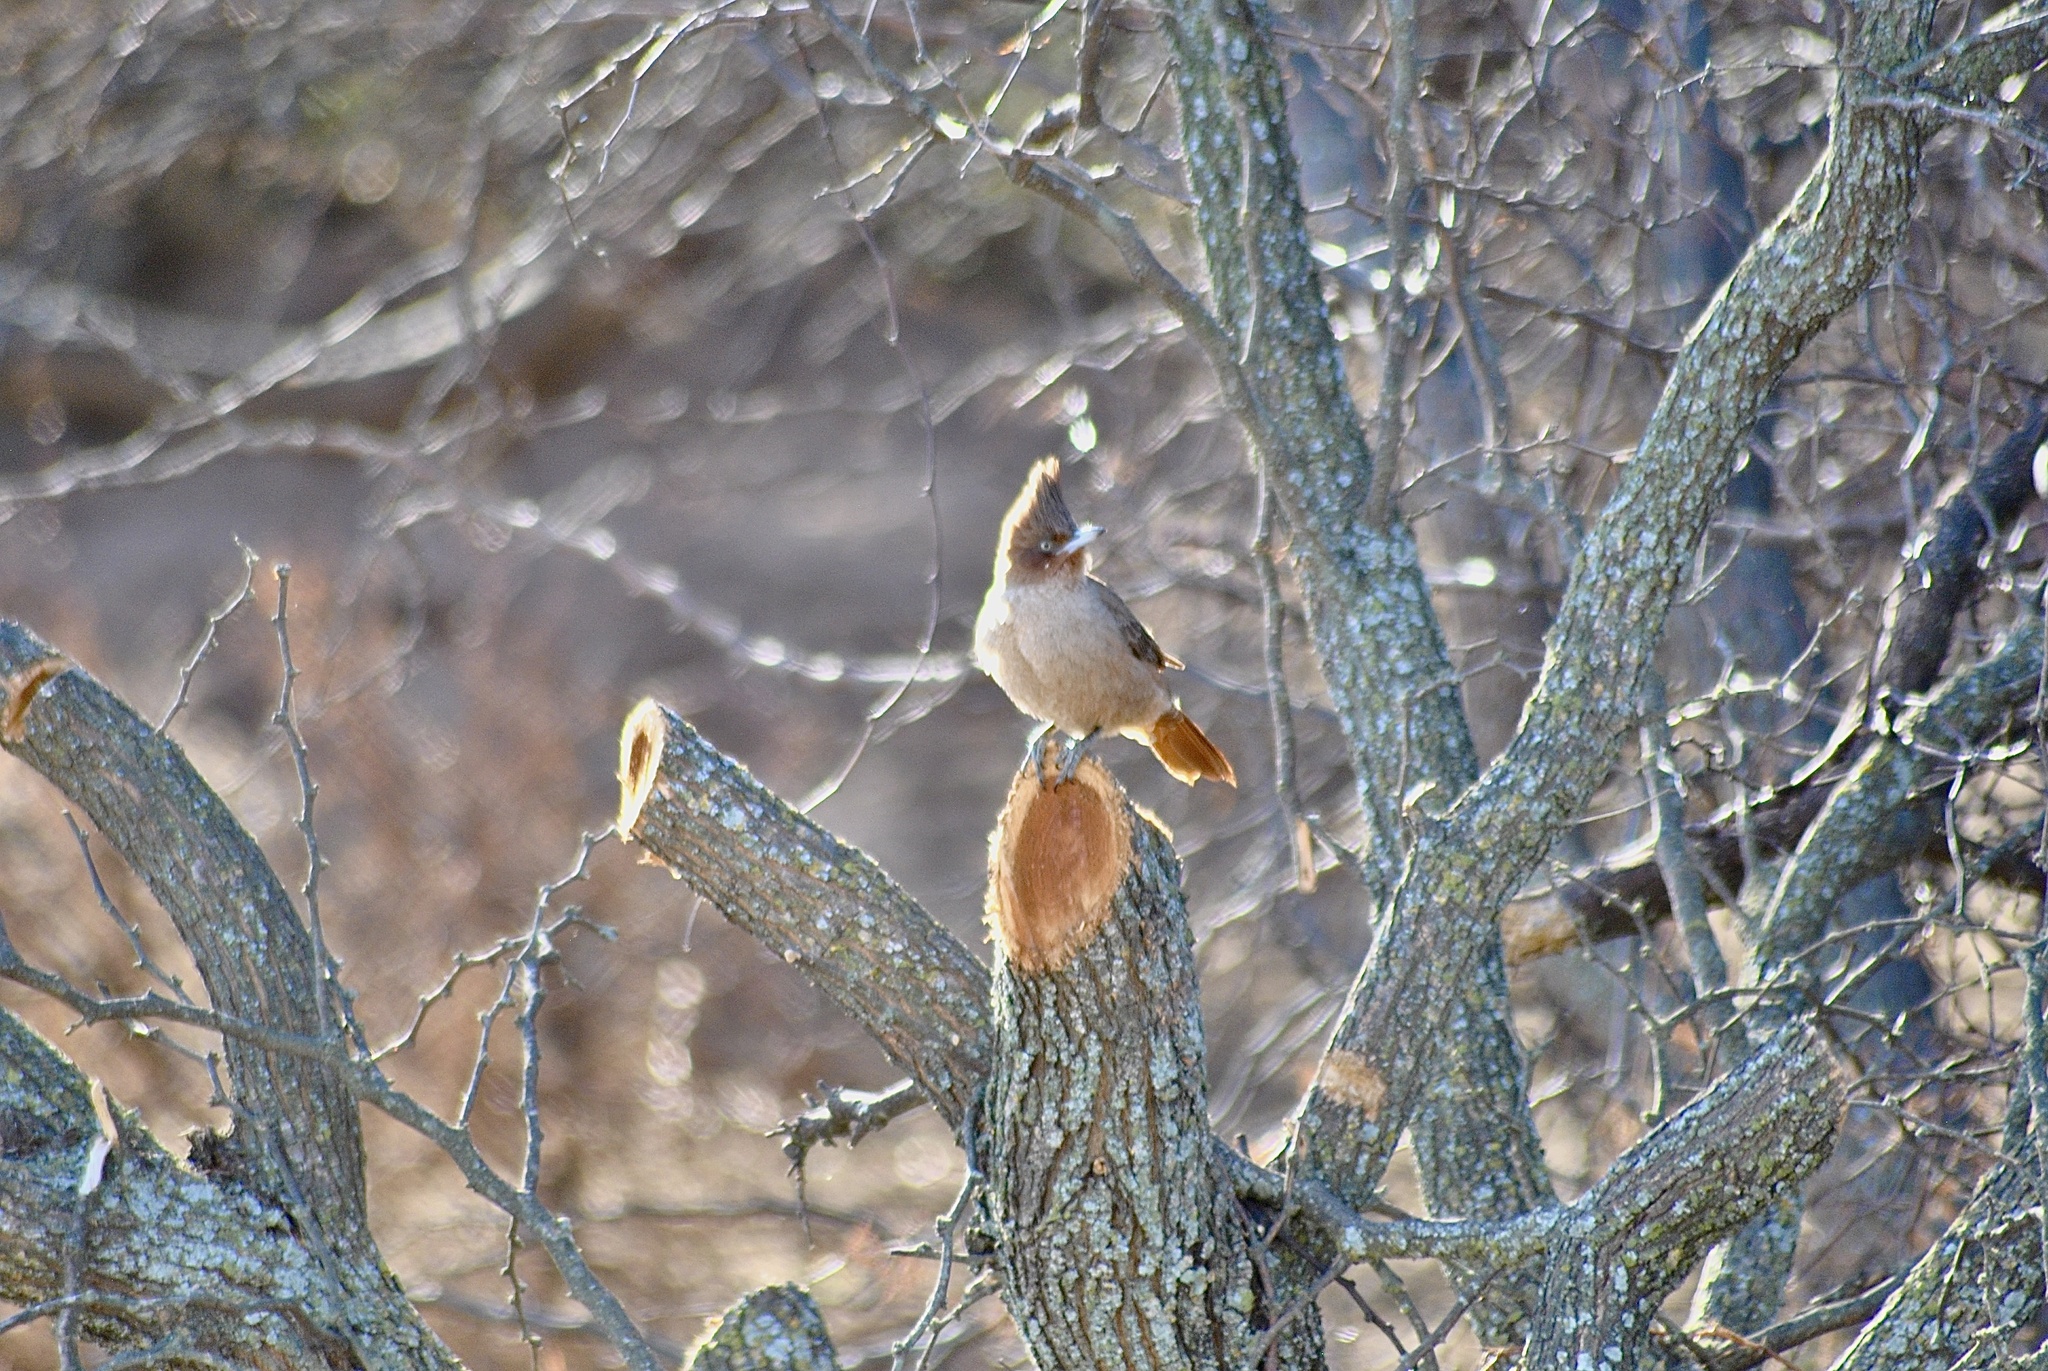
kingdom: Animalia
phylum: Chordata
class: Aves
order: Passeriformes
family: Furnariidae
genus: Pseudoseisura
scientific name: Pseudoseisura lophotes
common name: Brown cacholote
